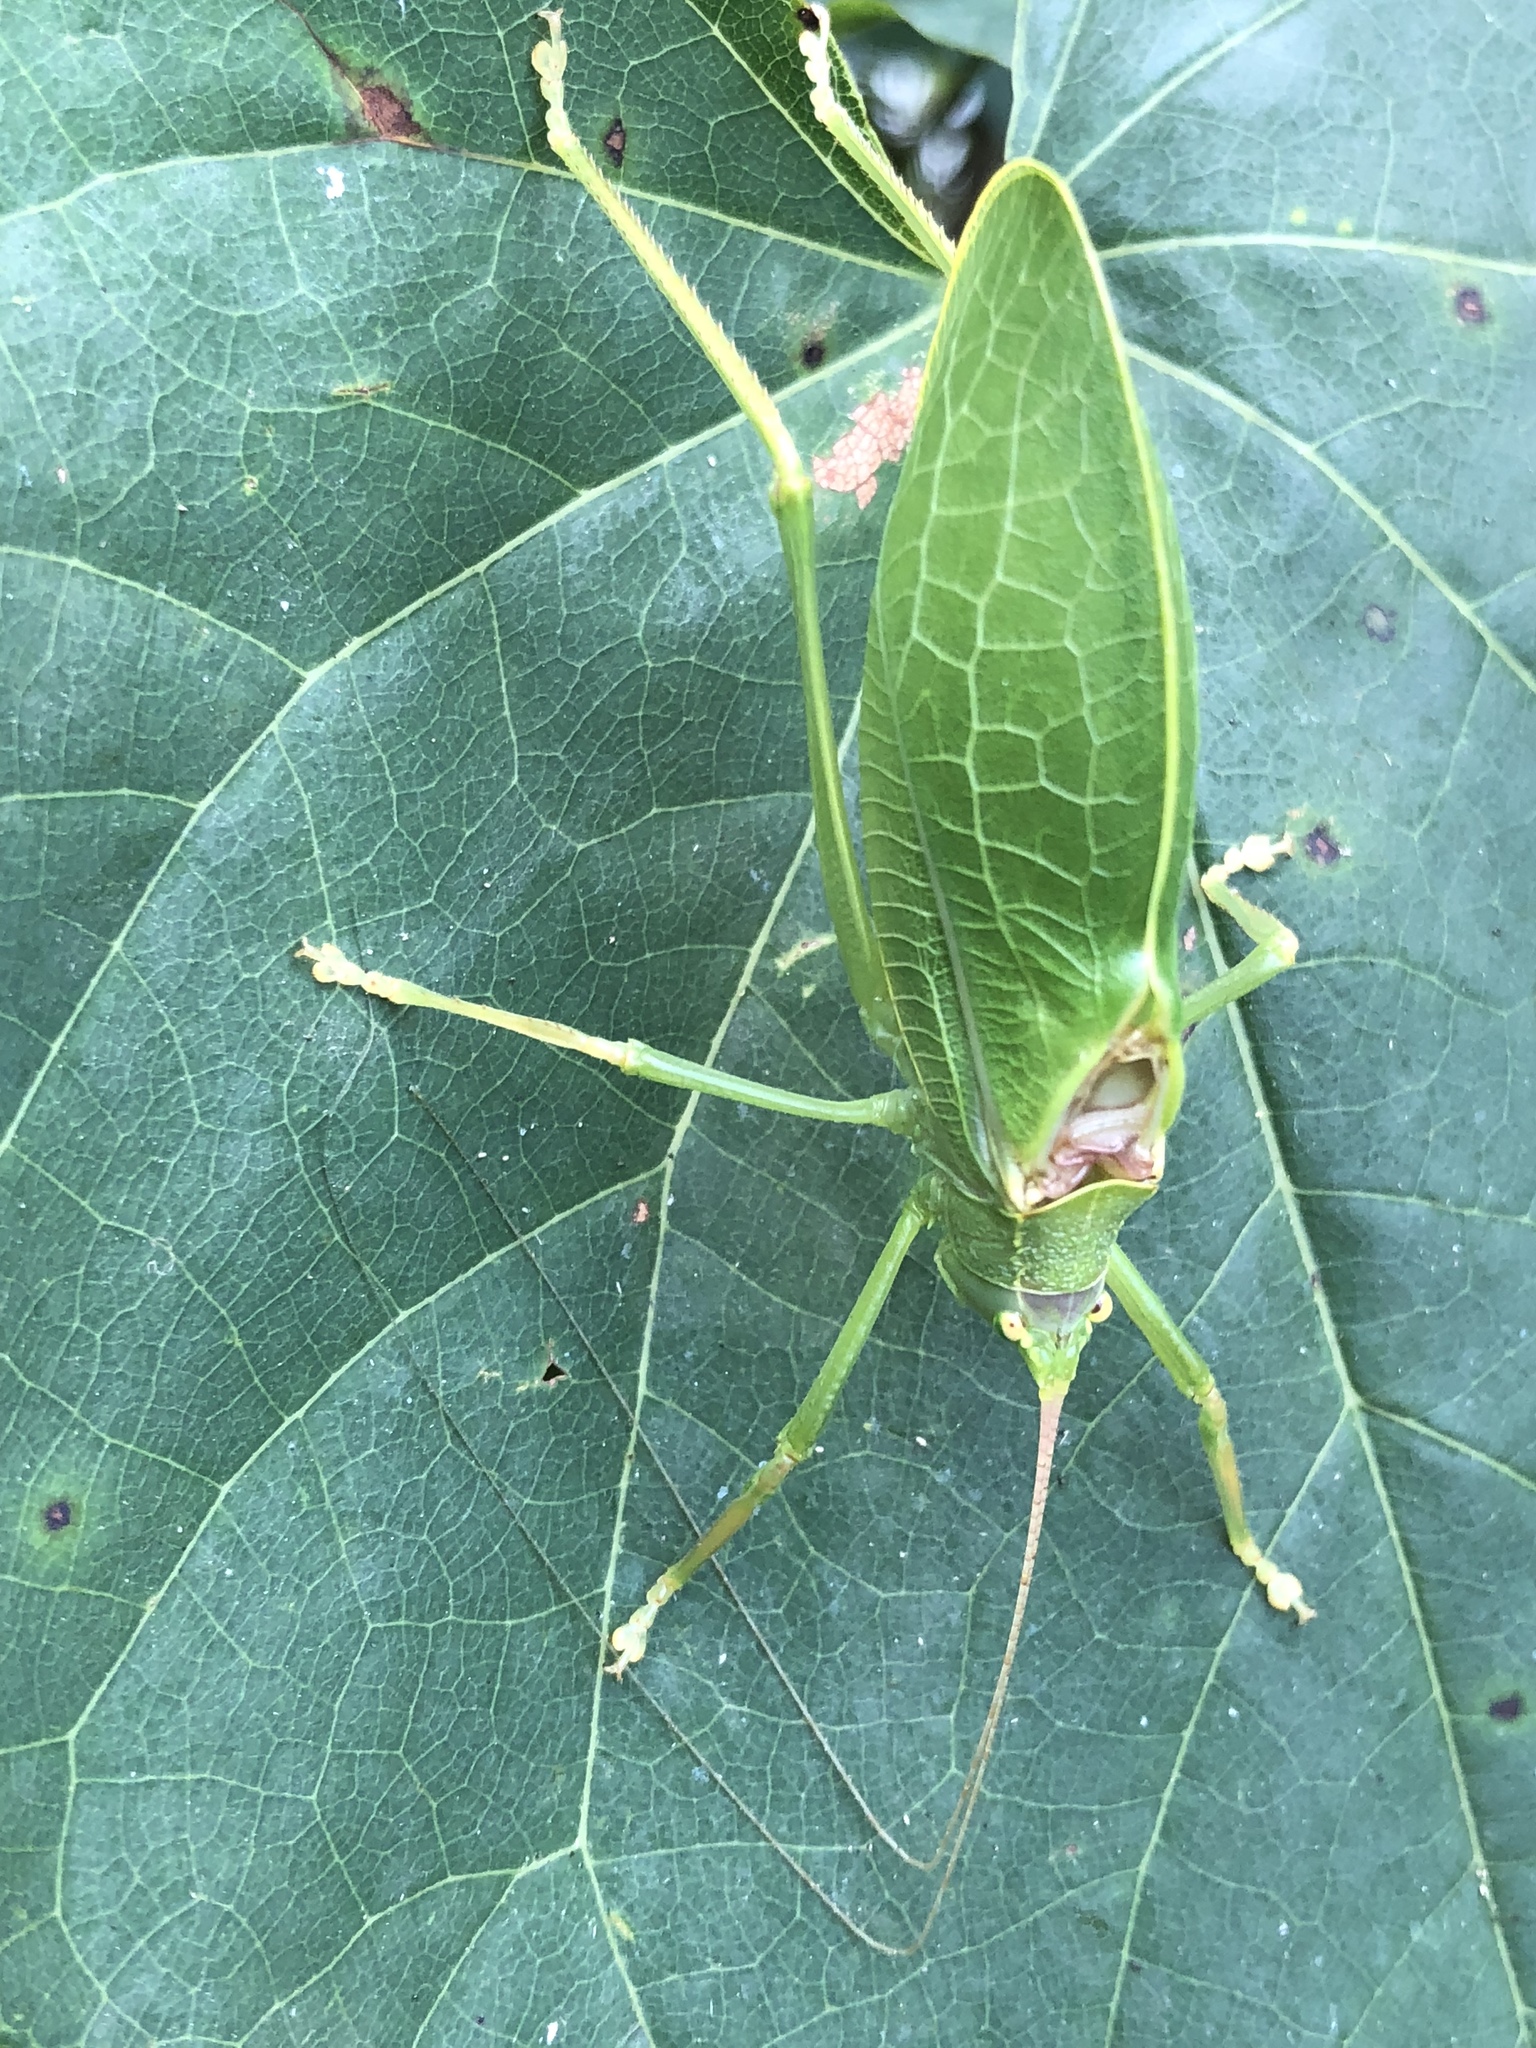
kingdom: Animalia
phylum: Arthropoda
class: Insecta
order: Orthoptera
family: Tettigoniidae
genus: Pterophylla
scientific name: Pterophylla camellifolia
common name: Common true katydid
